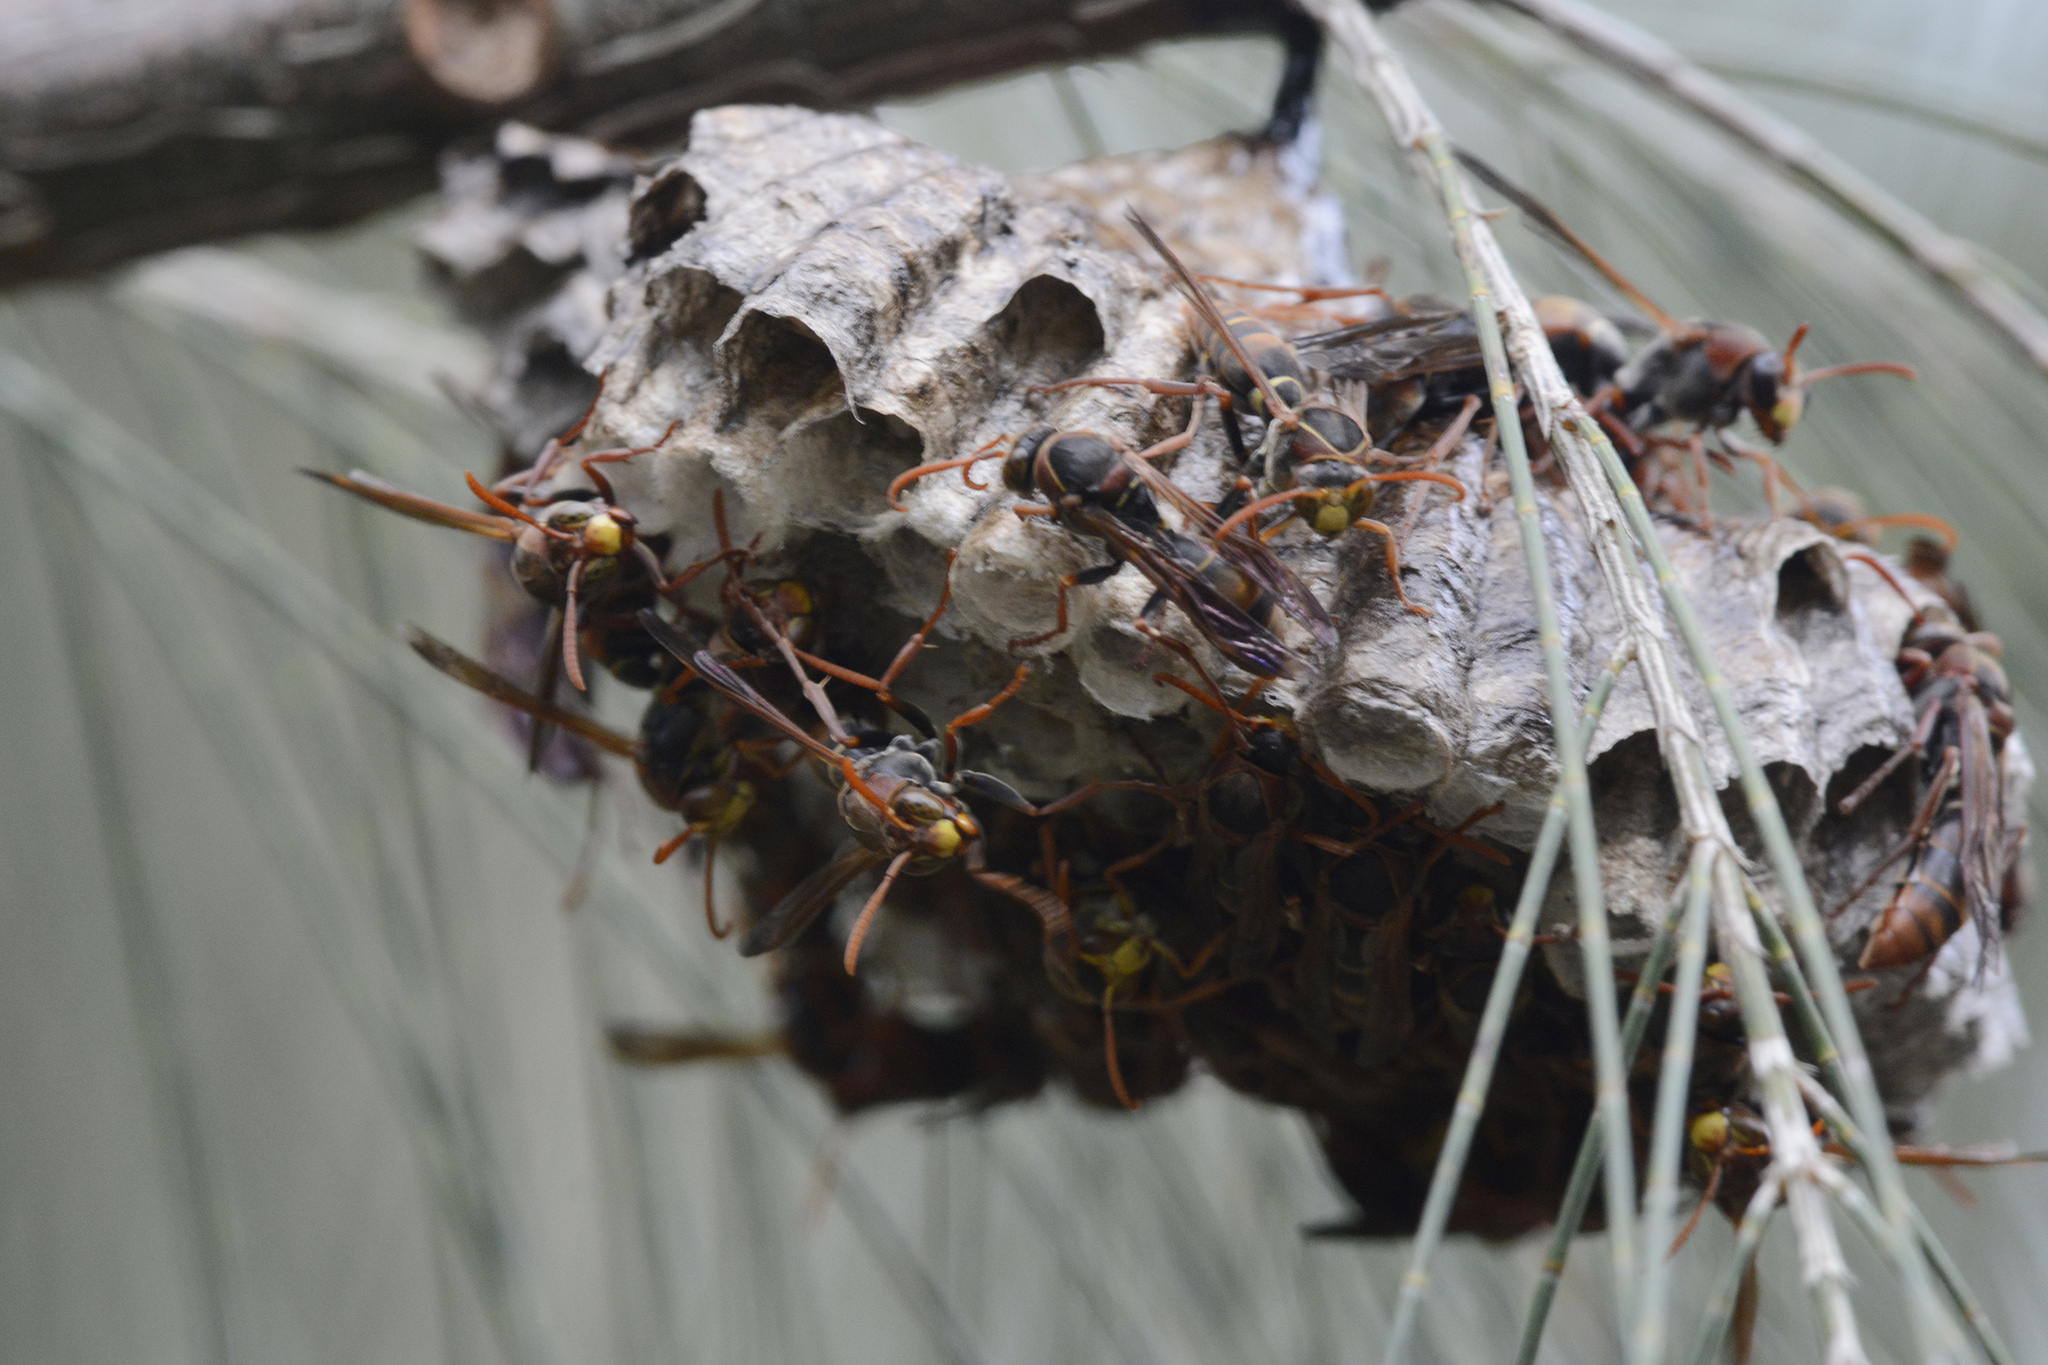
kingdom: Animalia
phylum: Arthropoda
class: Insecta
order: Hymenoptera
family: Eumenidae
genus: Polistes
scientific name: Polistes humilis
